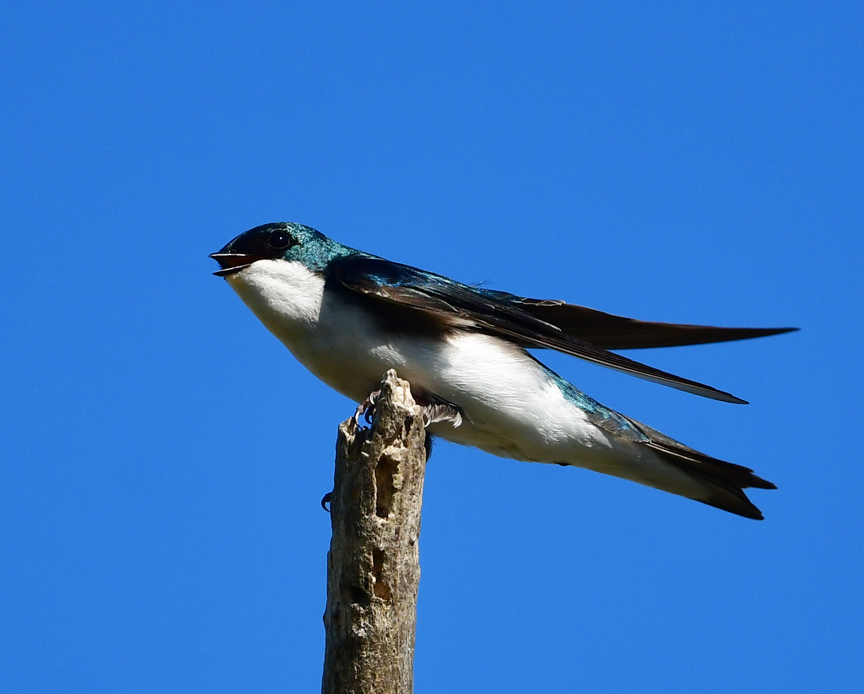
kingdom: Animalia
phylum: Chordata
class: Aves
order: Passeriformes
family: Hirundinidae
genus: Tachycineta
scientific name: Tachycineta bicolor
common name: Tree swallow
